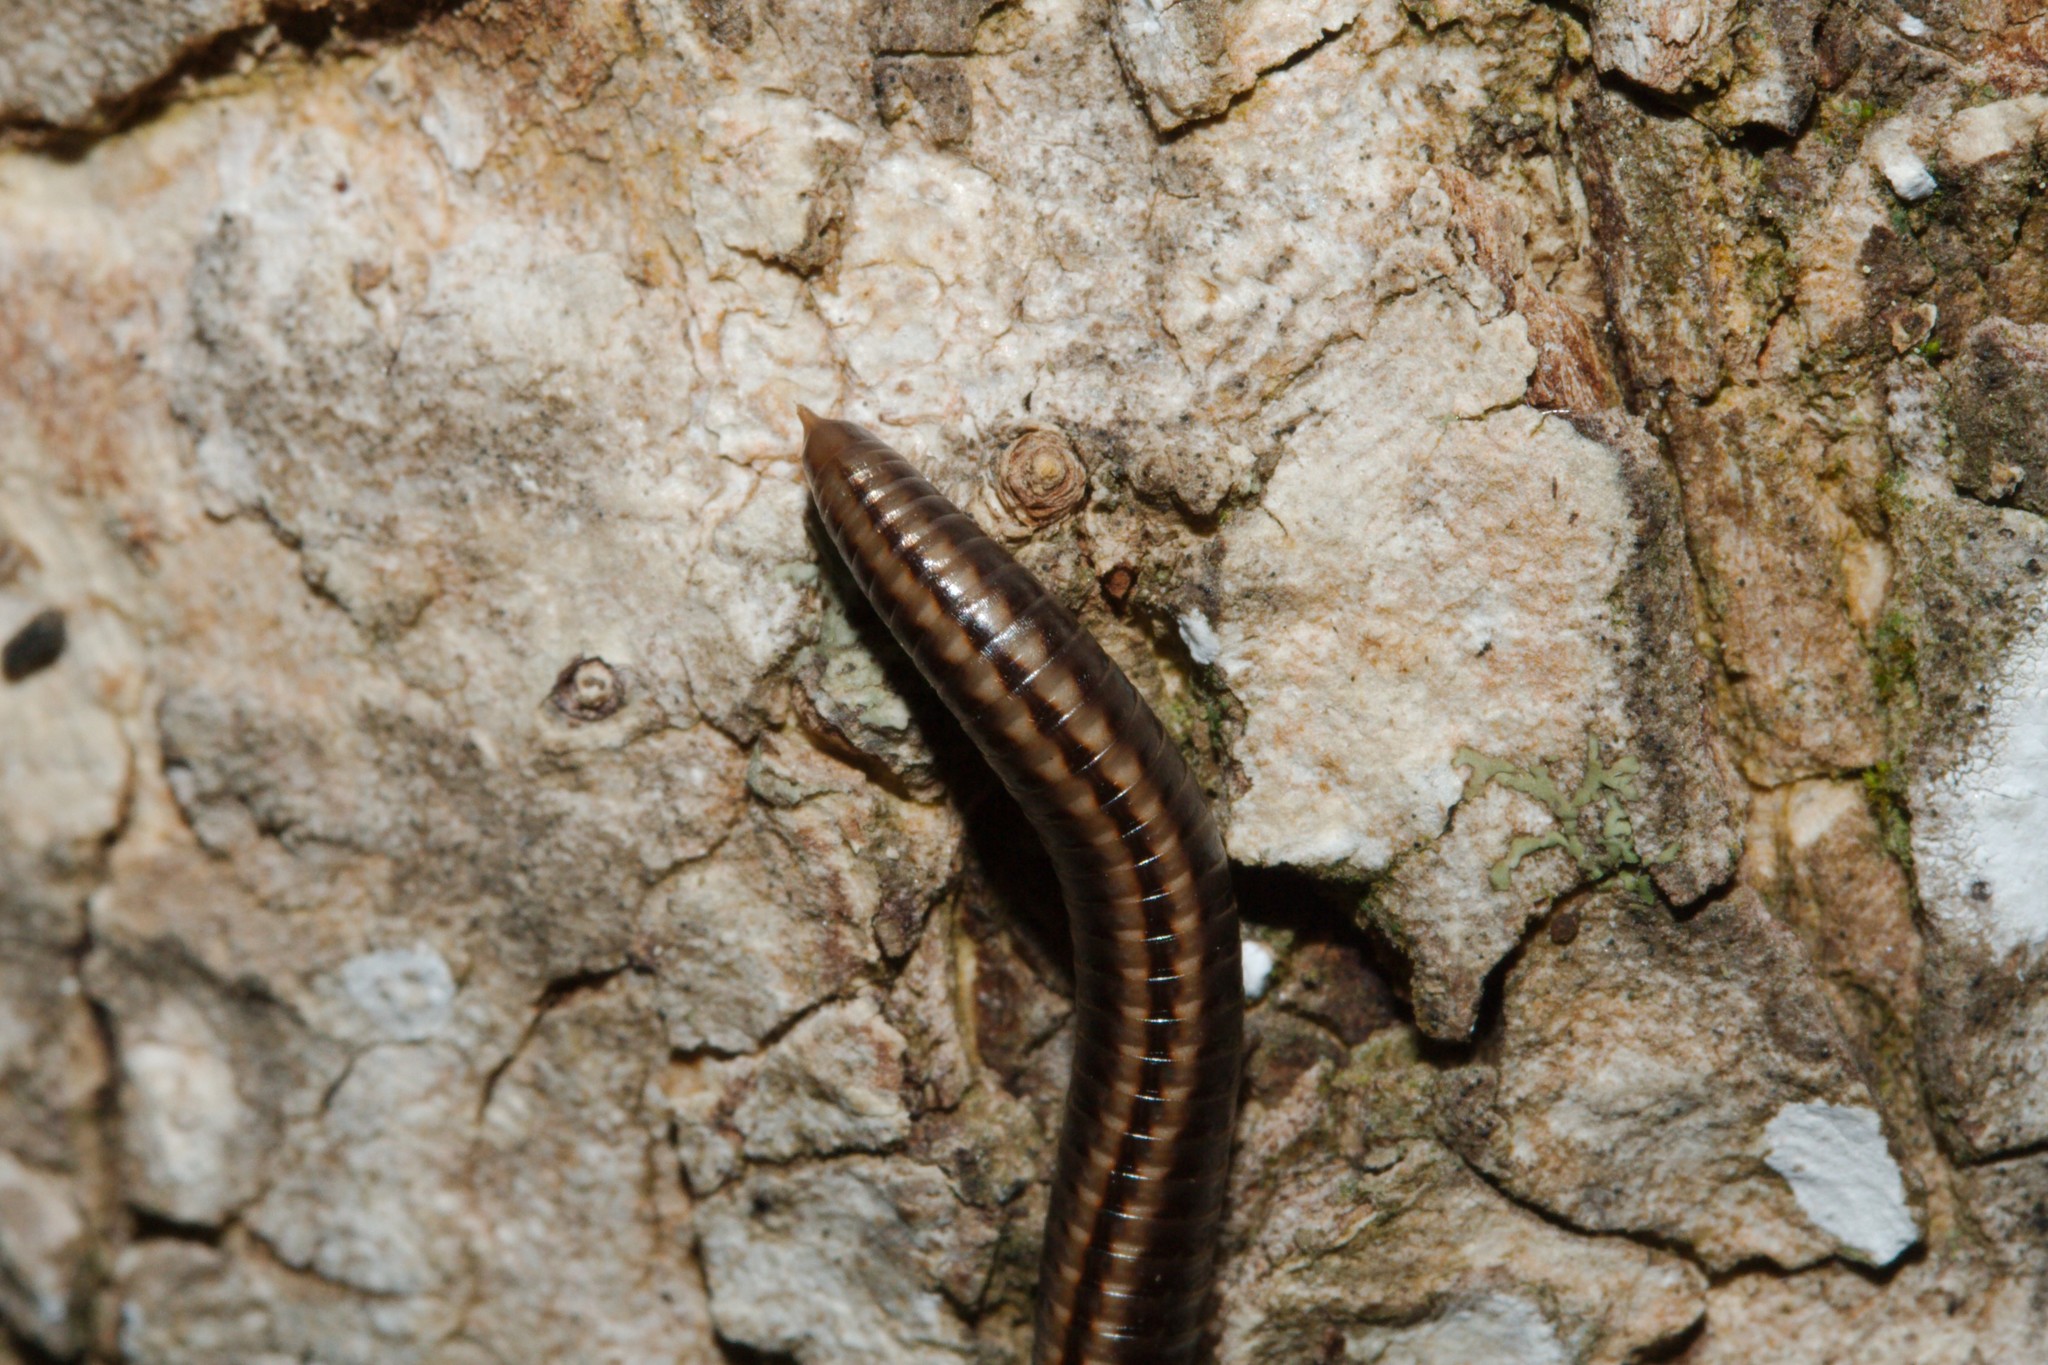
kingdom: Animalia
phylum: Arthropoda
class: Diplopoda
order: Julida
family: Julidae
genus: Ommatoiulus
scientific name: Ommatoiulus sabulosus
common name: Striped millipede
